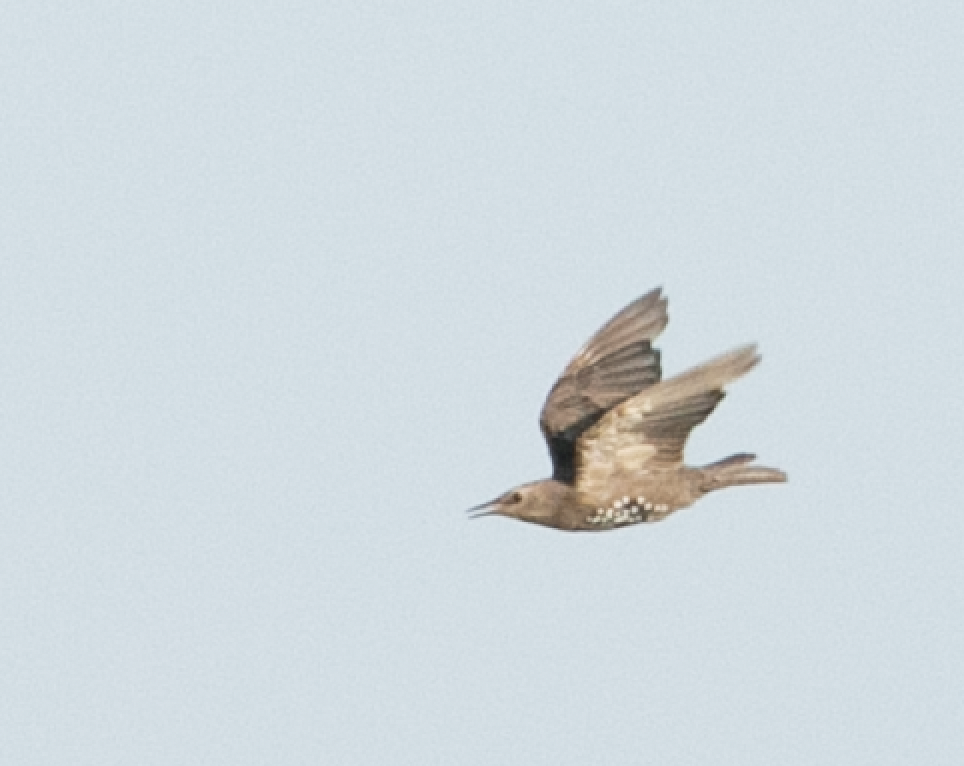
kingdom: Animalia
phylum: Chordata
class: Aves
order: Passeriformes
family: Sturnidae
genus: Sturnus
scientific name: Sturnus vulgaris
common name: Common starling
